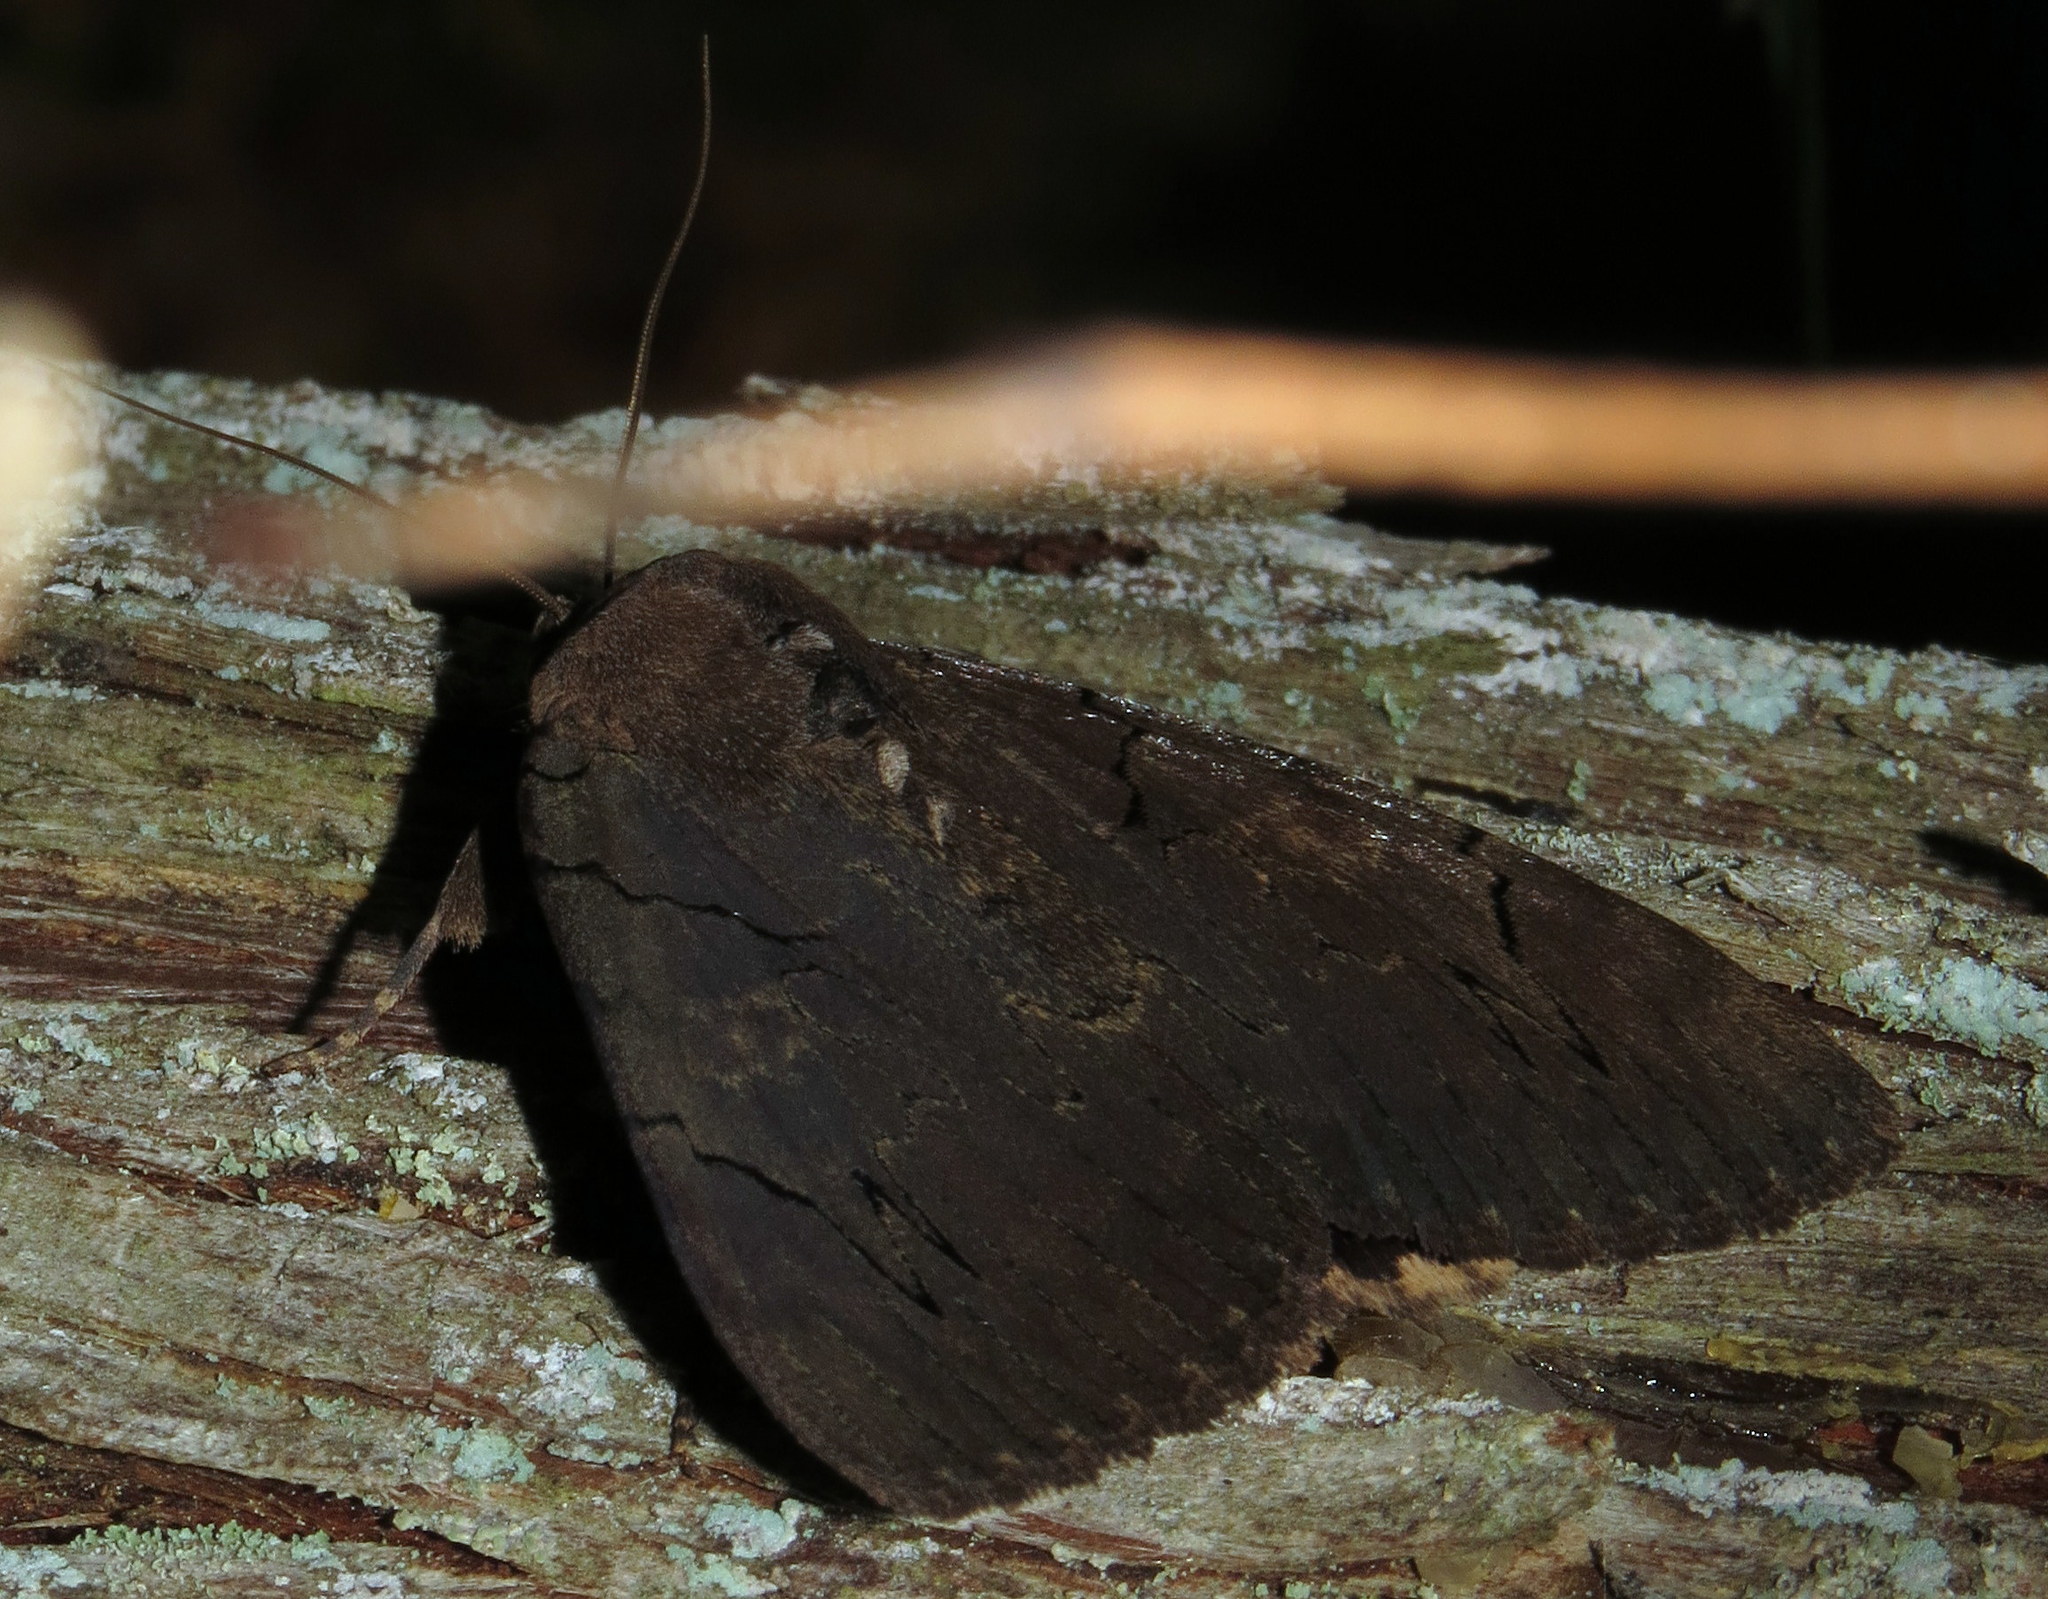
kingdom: Animalia
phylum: Arthropoda
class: Insecta
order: Lepidoptera
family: Erebidae
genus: Catocala
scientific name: Catocala cara
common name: Darling underwing
